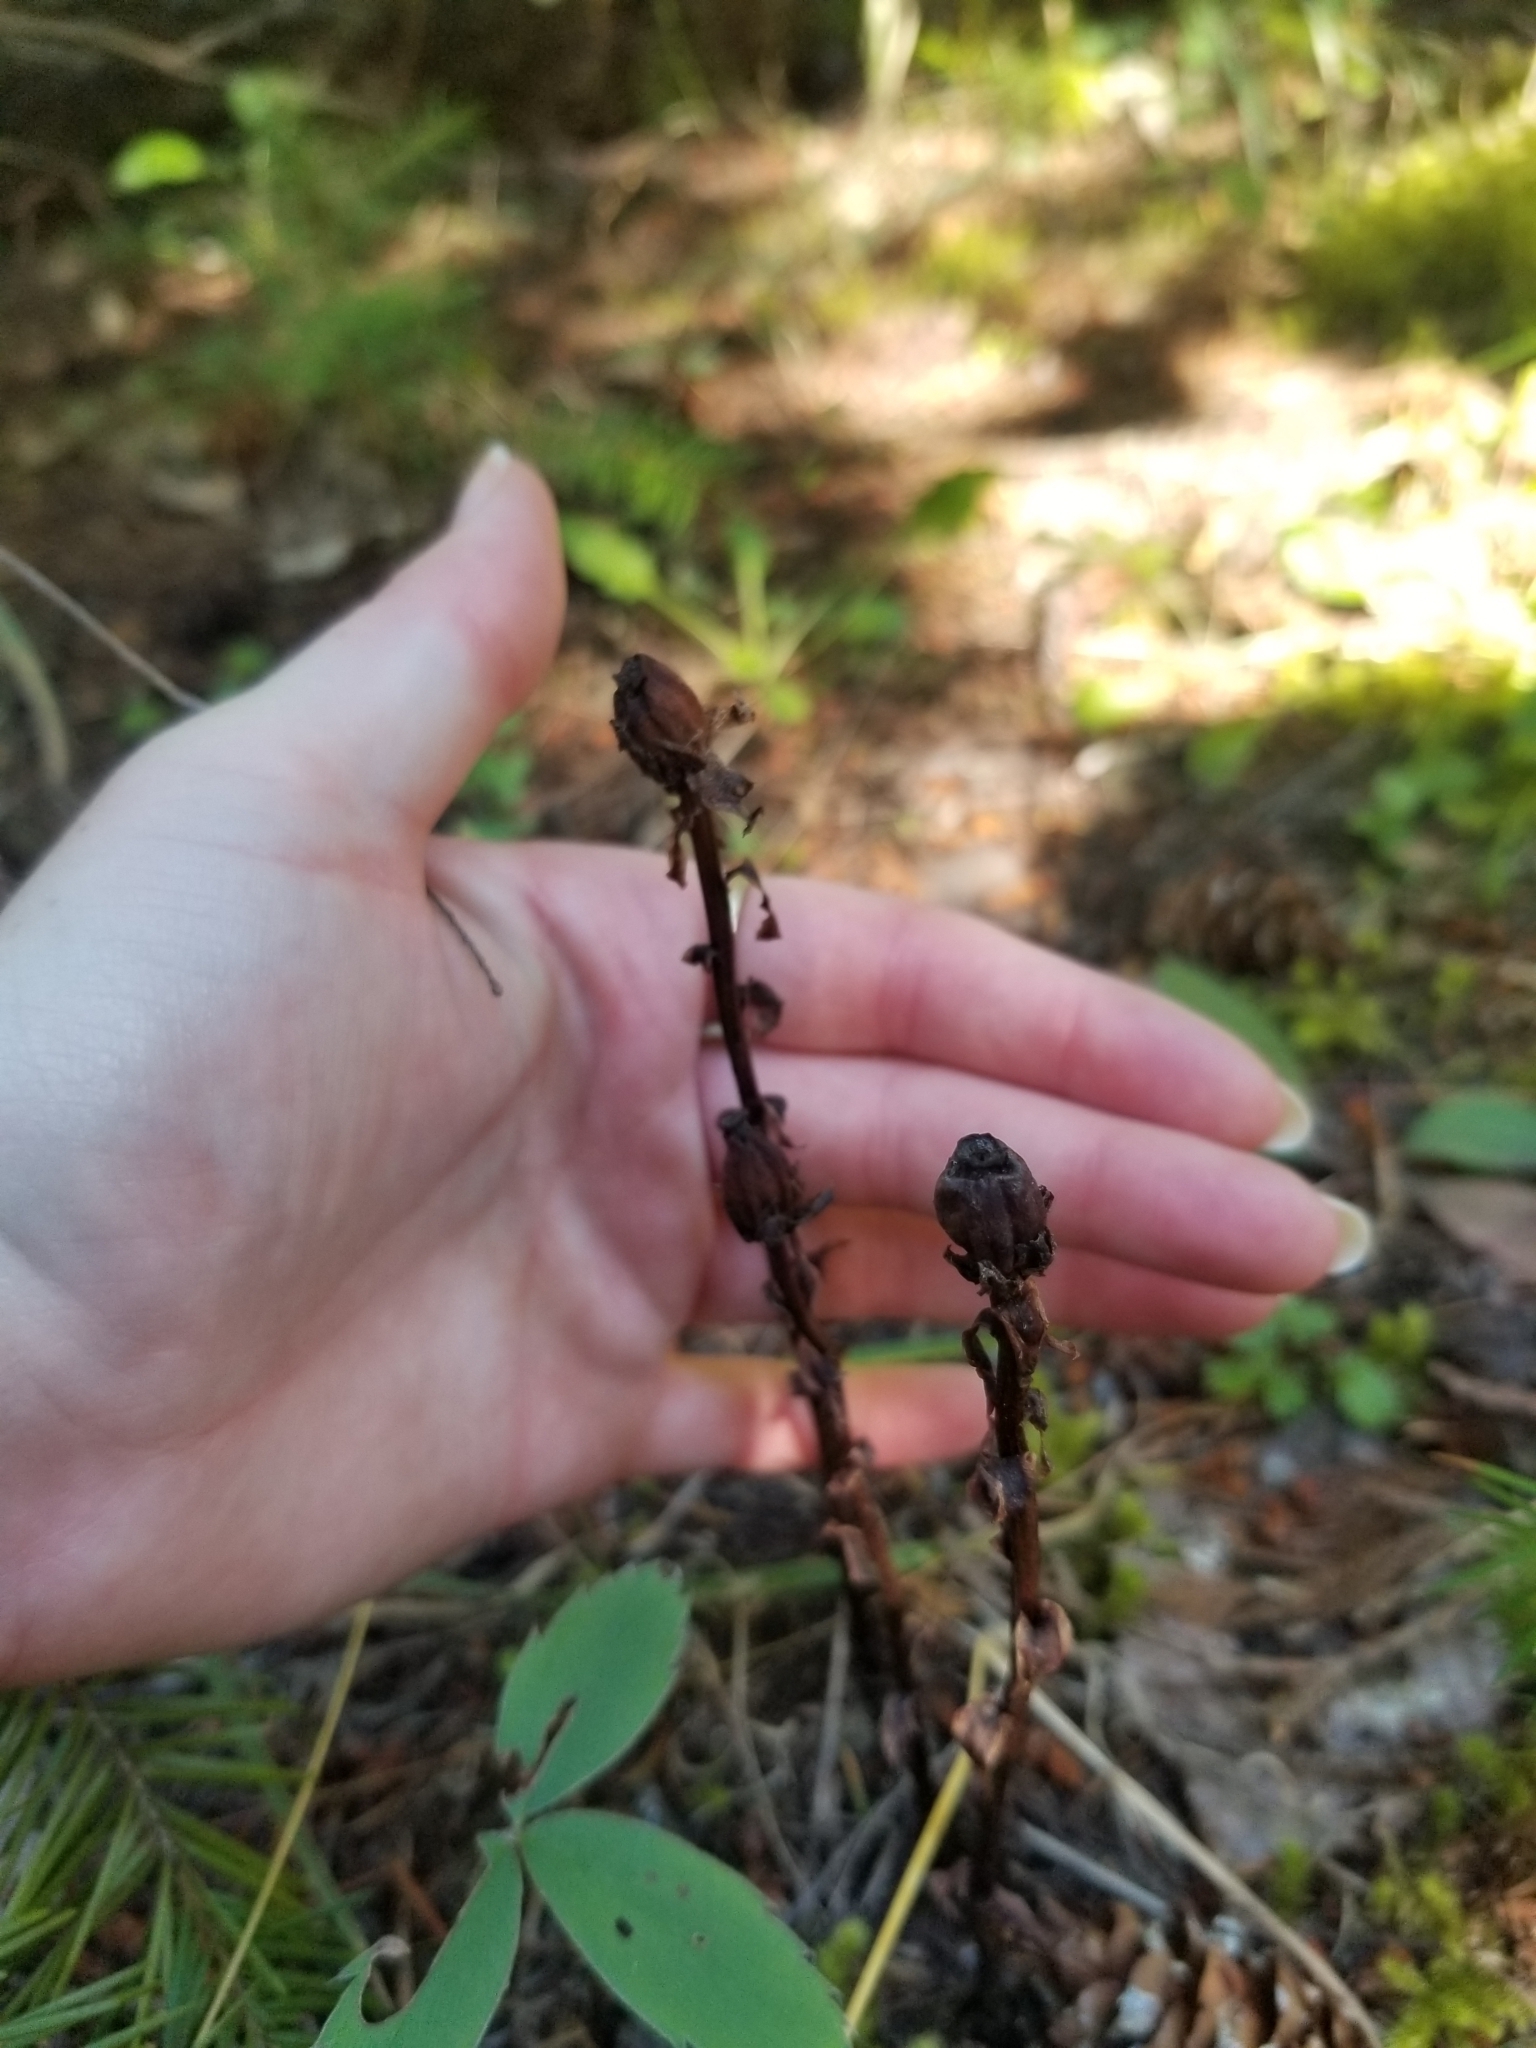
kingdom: Plantae
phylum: Tracheophyta
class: Magnoliopsida
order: Ericales
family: Ericaceae
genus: Monotropa
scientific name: Monotropa uniflora
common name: Convulsion root
